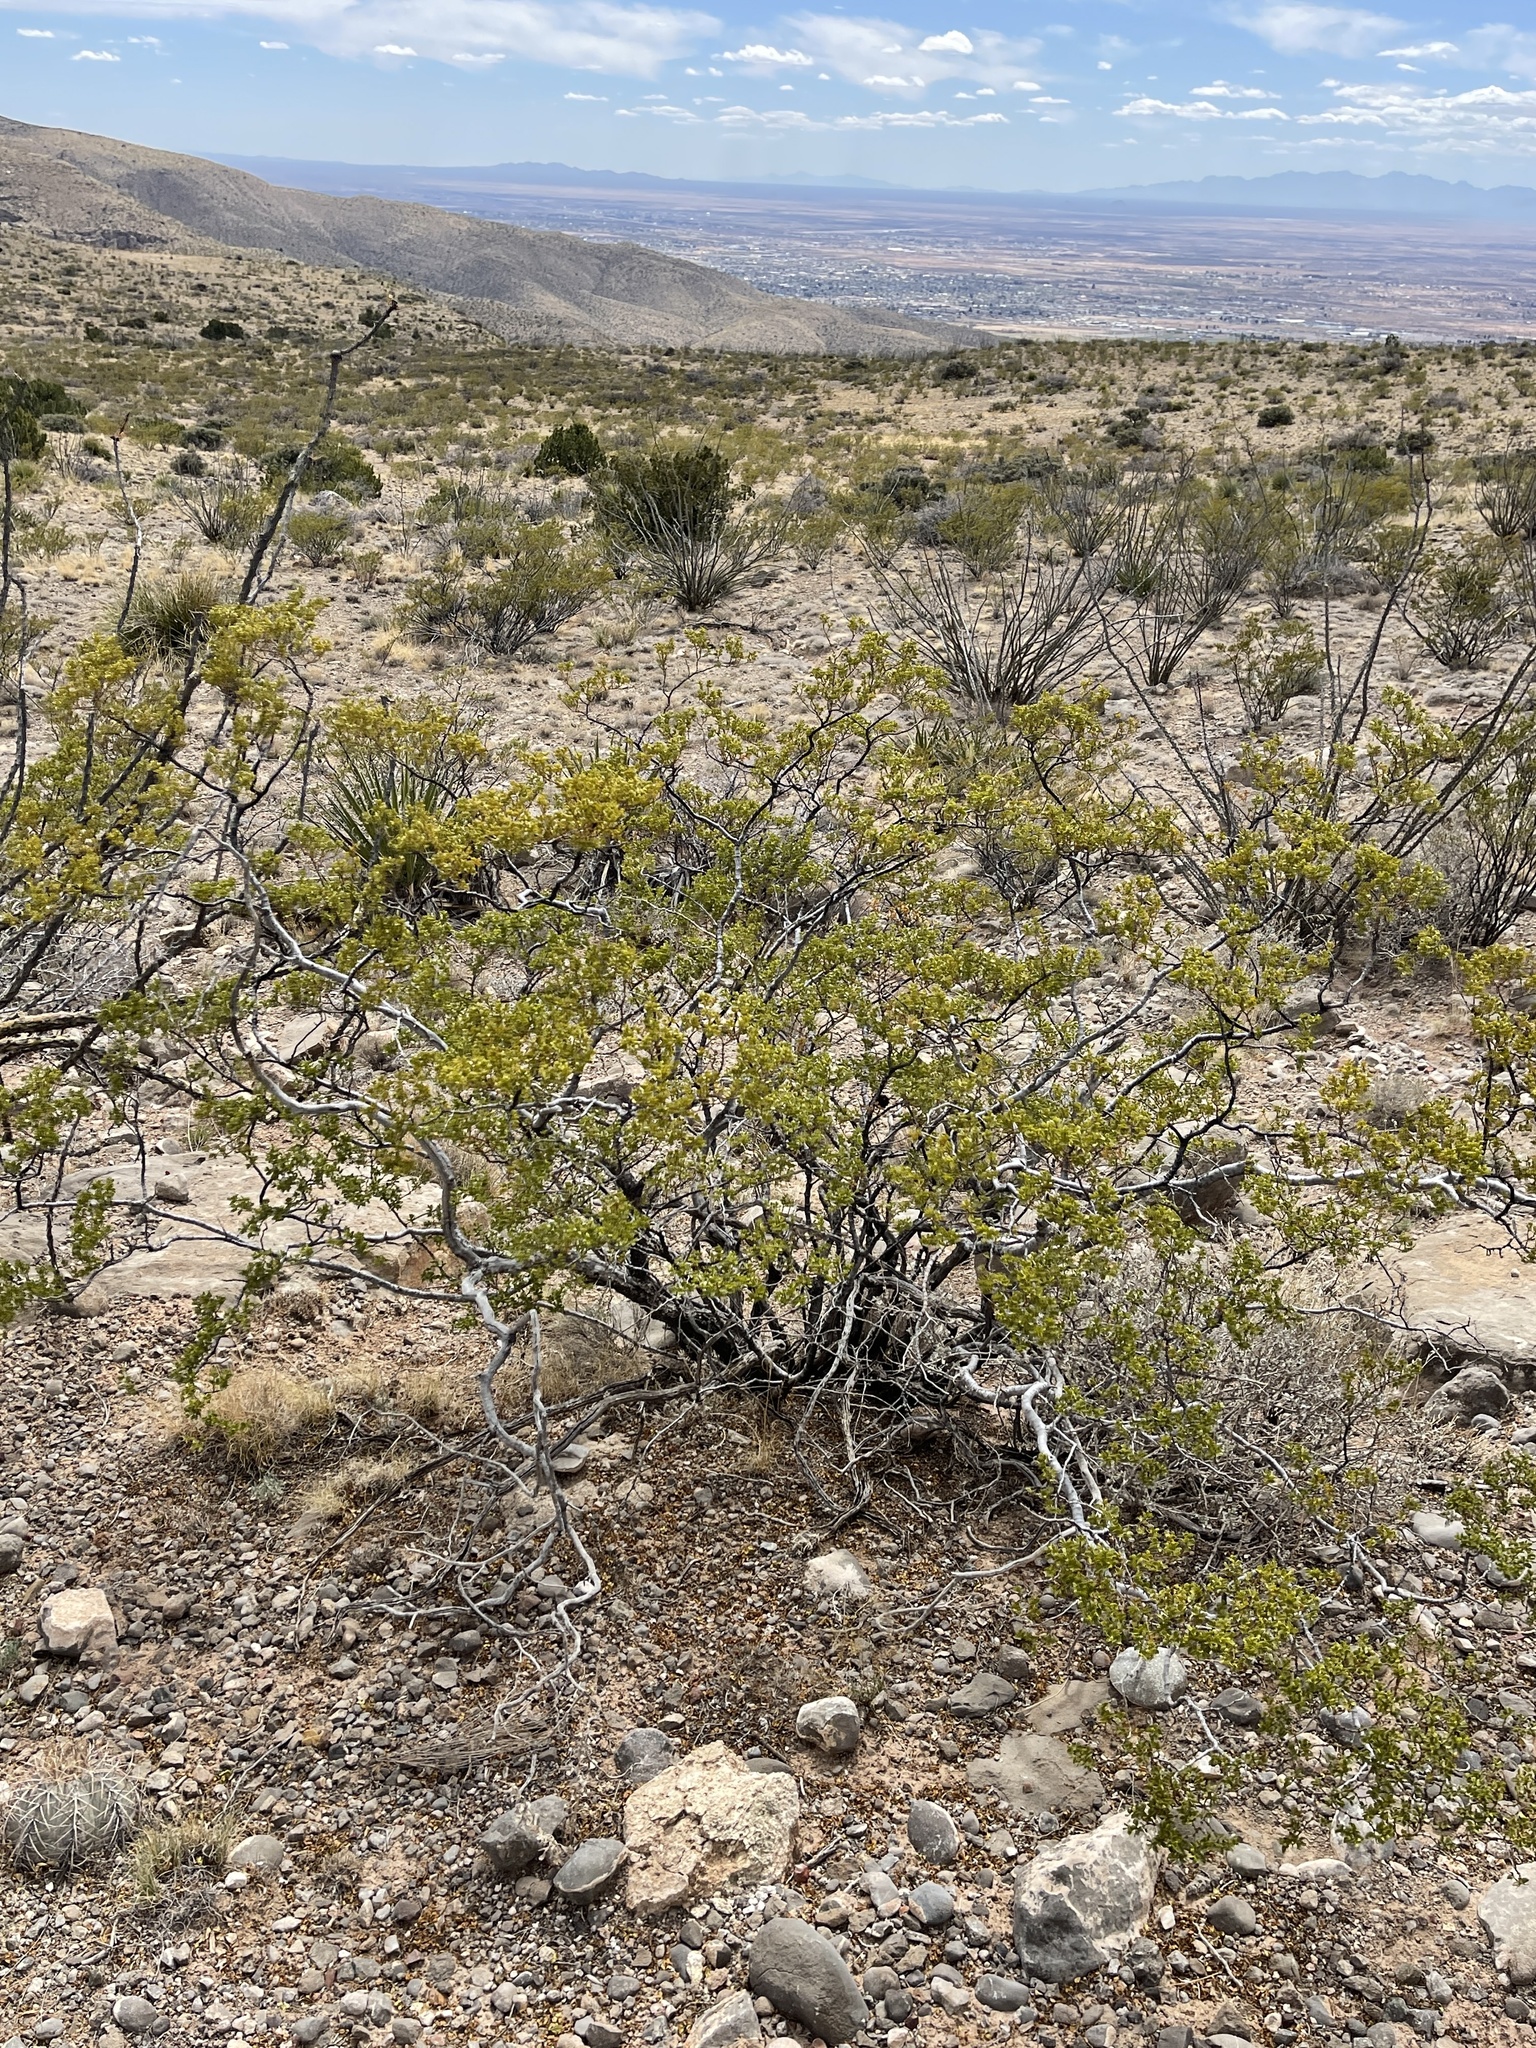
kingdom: Plantae
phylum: Tracheophyta
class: Magnoliopsida
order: Zygophyllales
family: Zygophyllaceae
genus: Larrea
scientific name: Larrea tridentata
